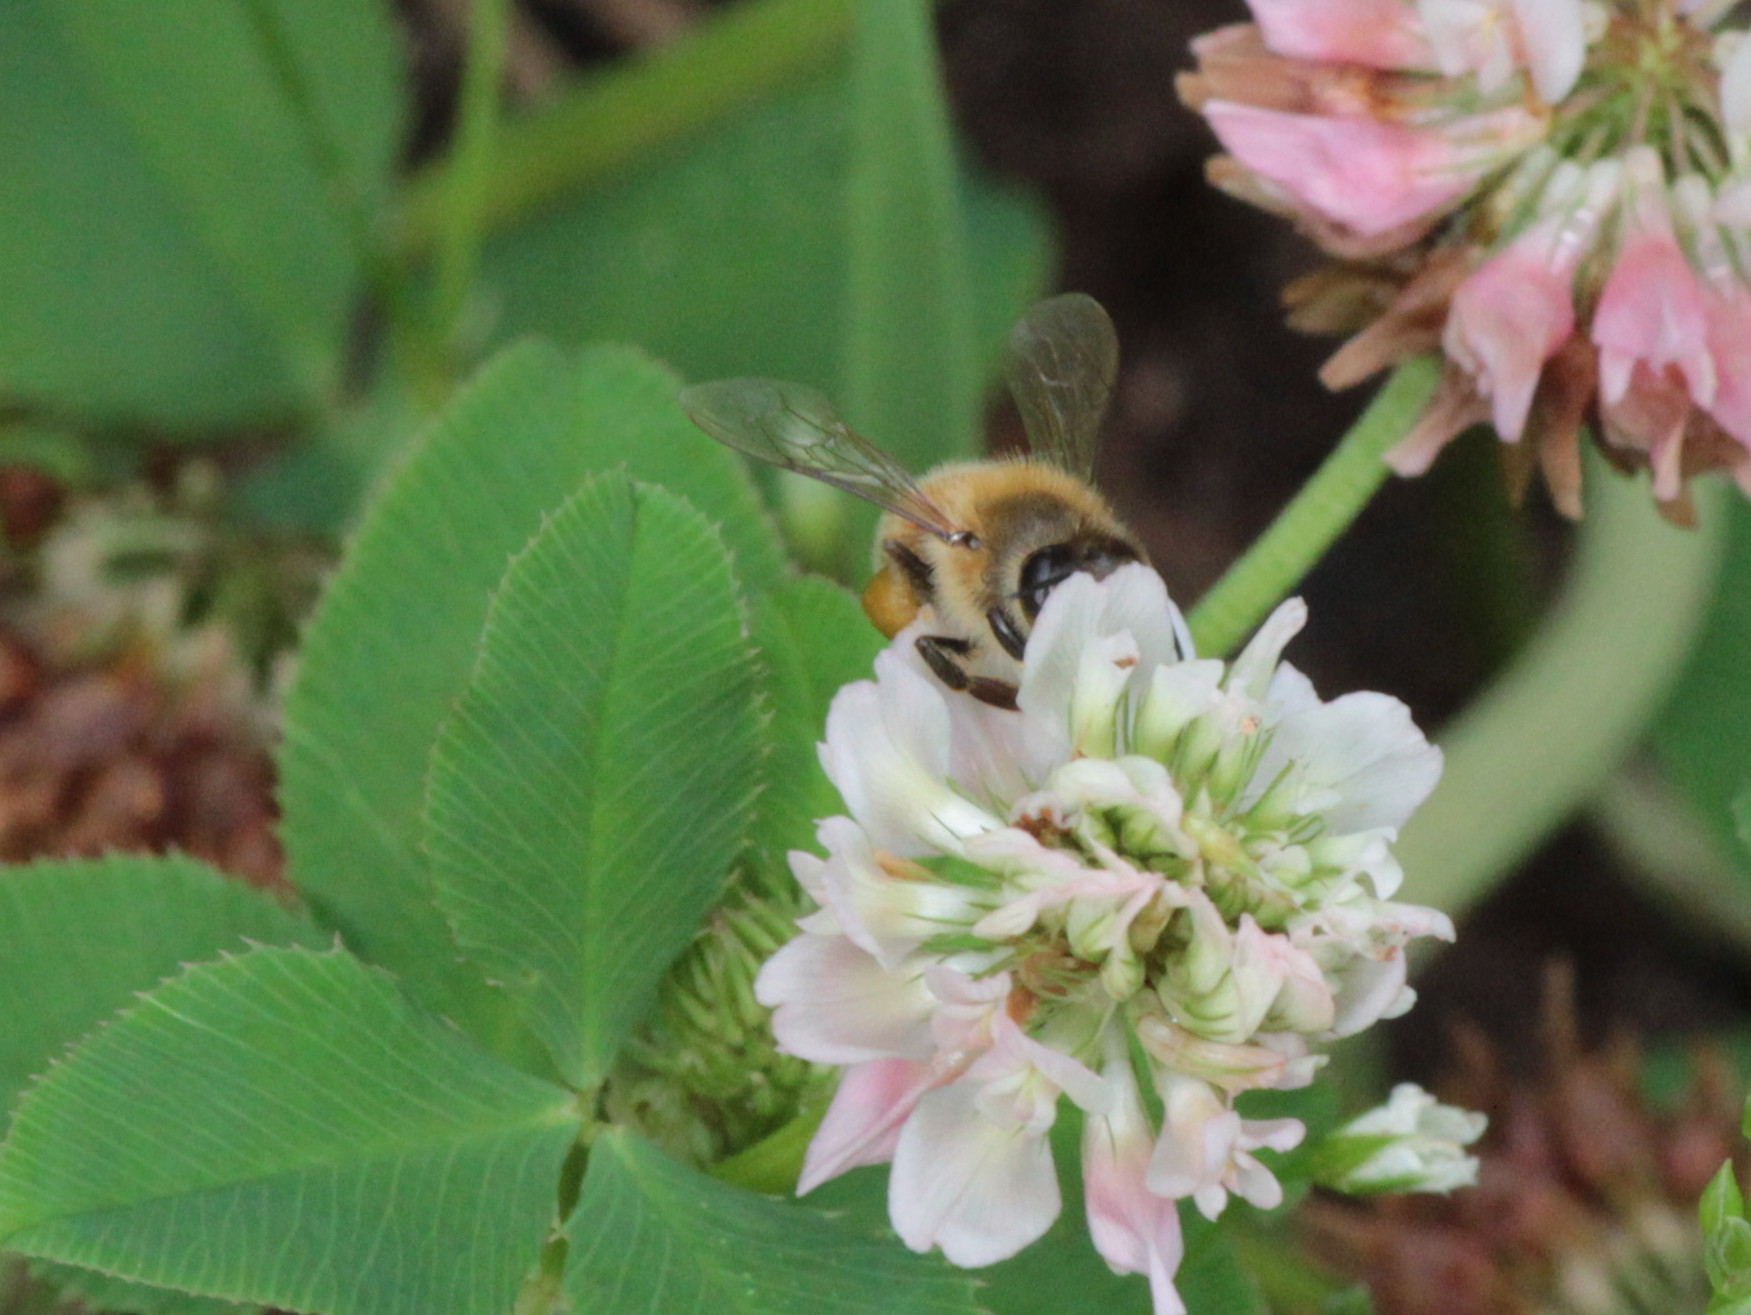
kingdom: Animalia
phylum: Arthropoda
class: Insecta
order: Hymenoptera
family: Apidae
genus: Apis
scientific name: Apis mellifera
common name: Honey bee
